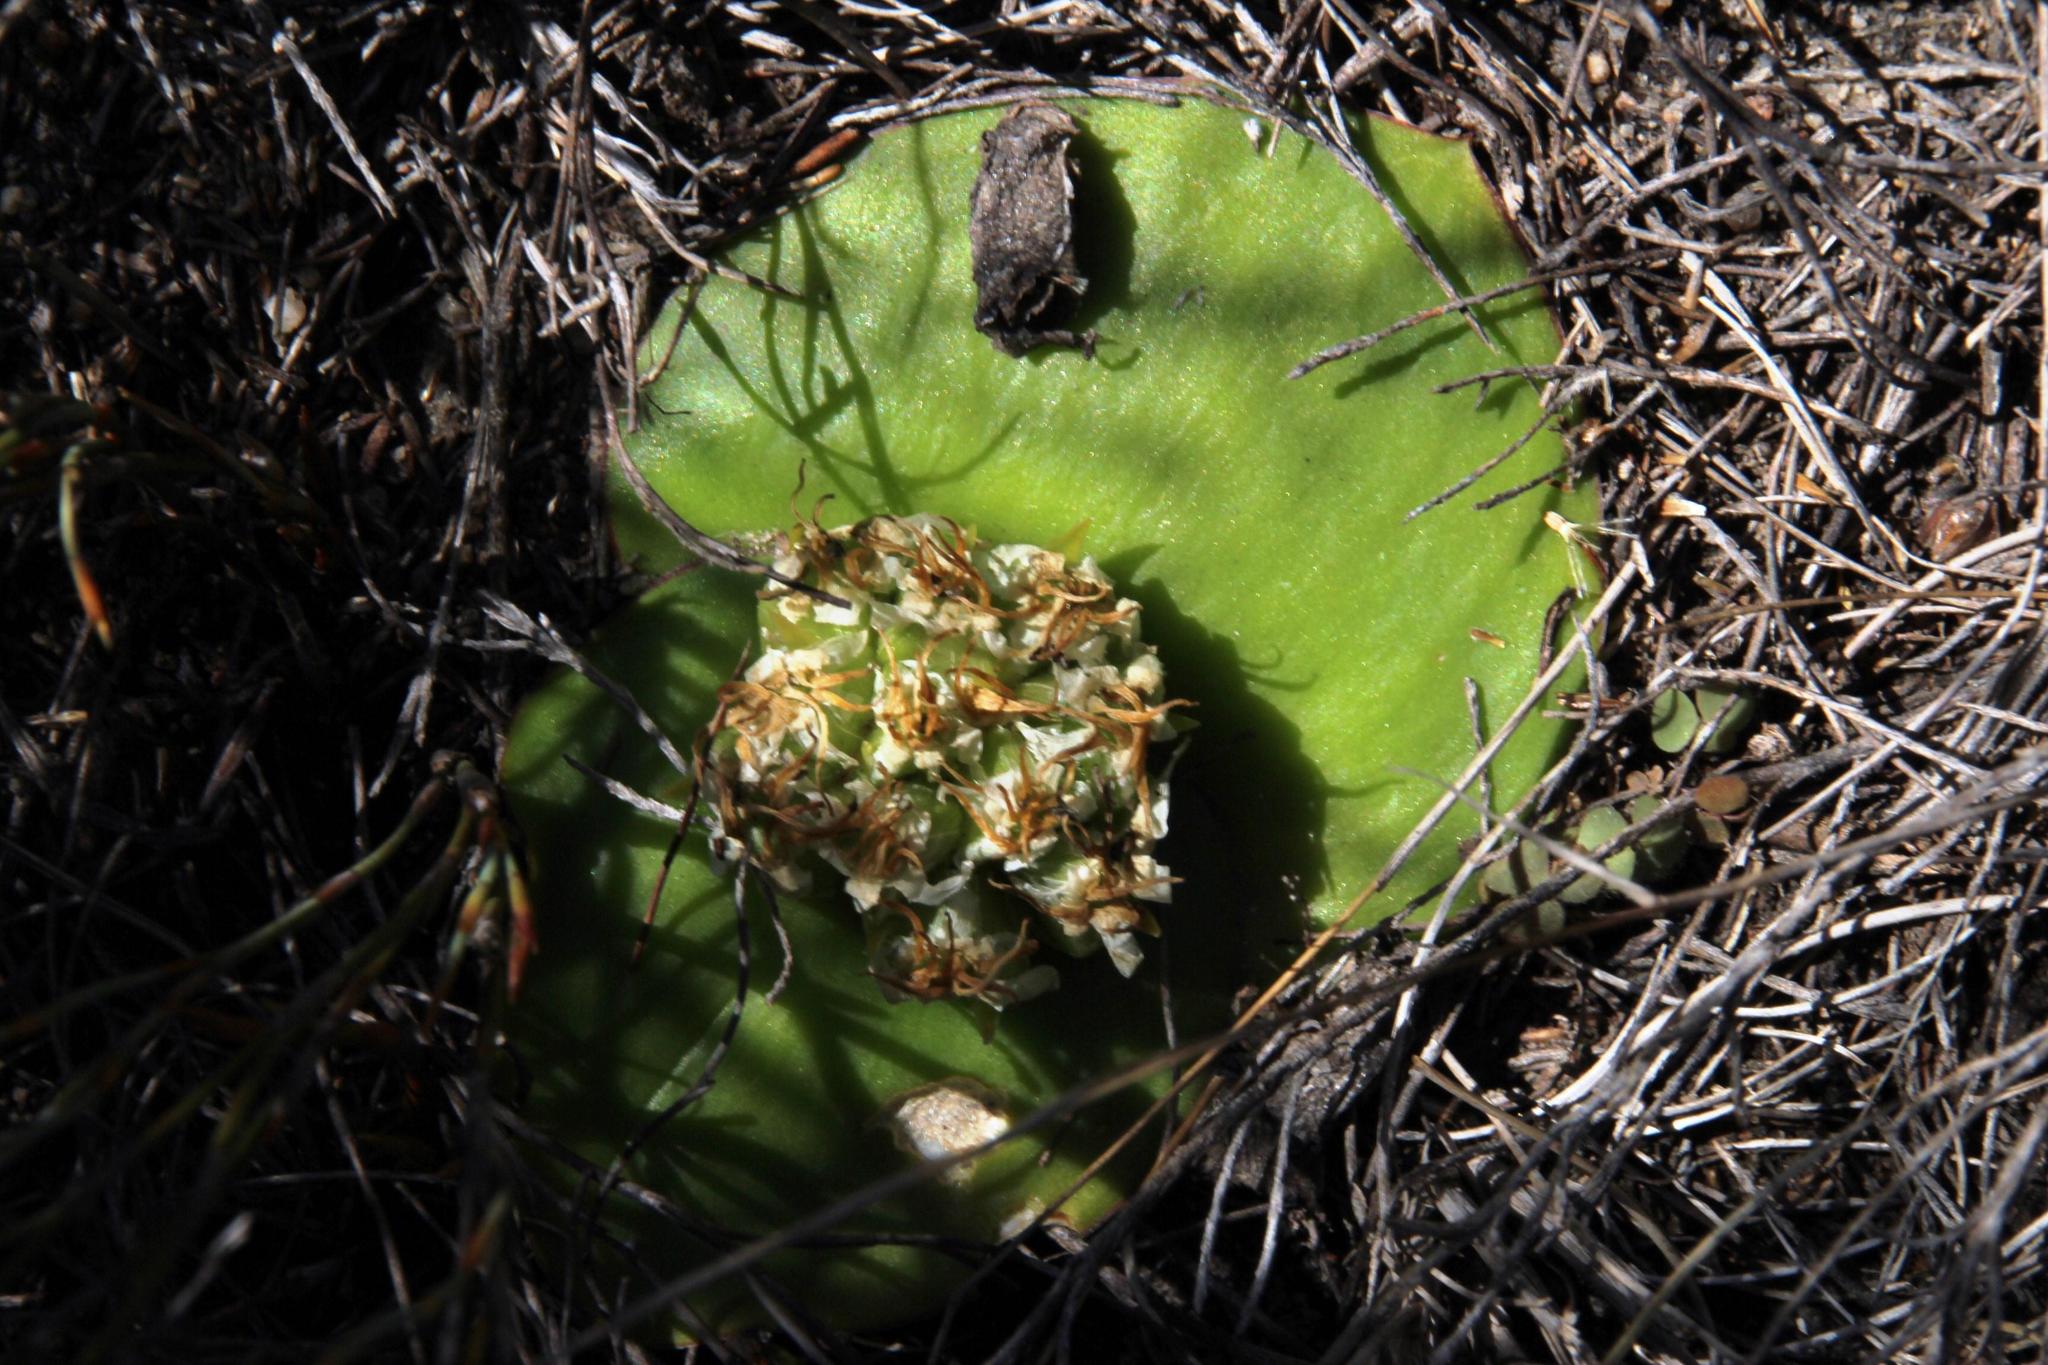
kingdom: Plantae
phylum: Tracheophyta
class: Liliopsida
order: Asparagales
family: Asparagaceae
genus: Massonia
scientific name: Massonia triflora
